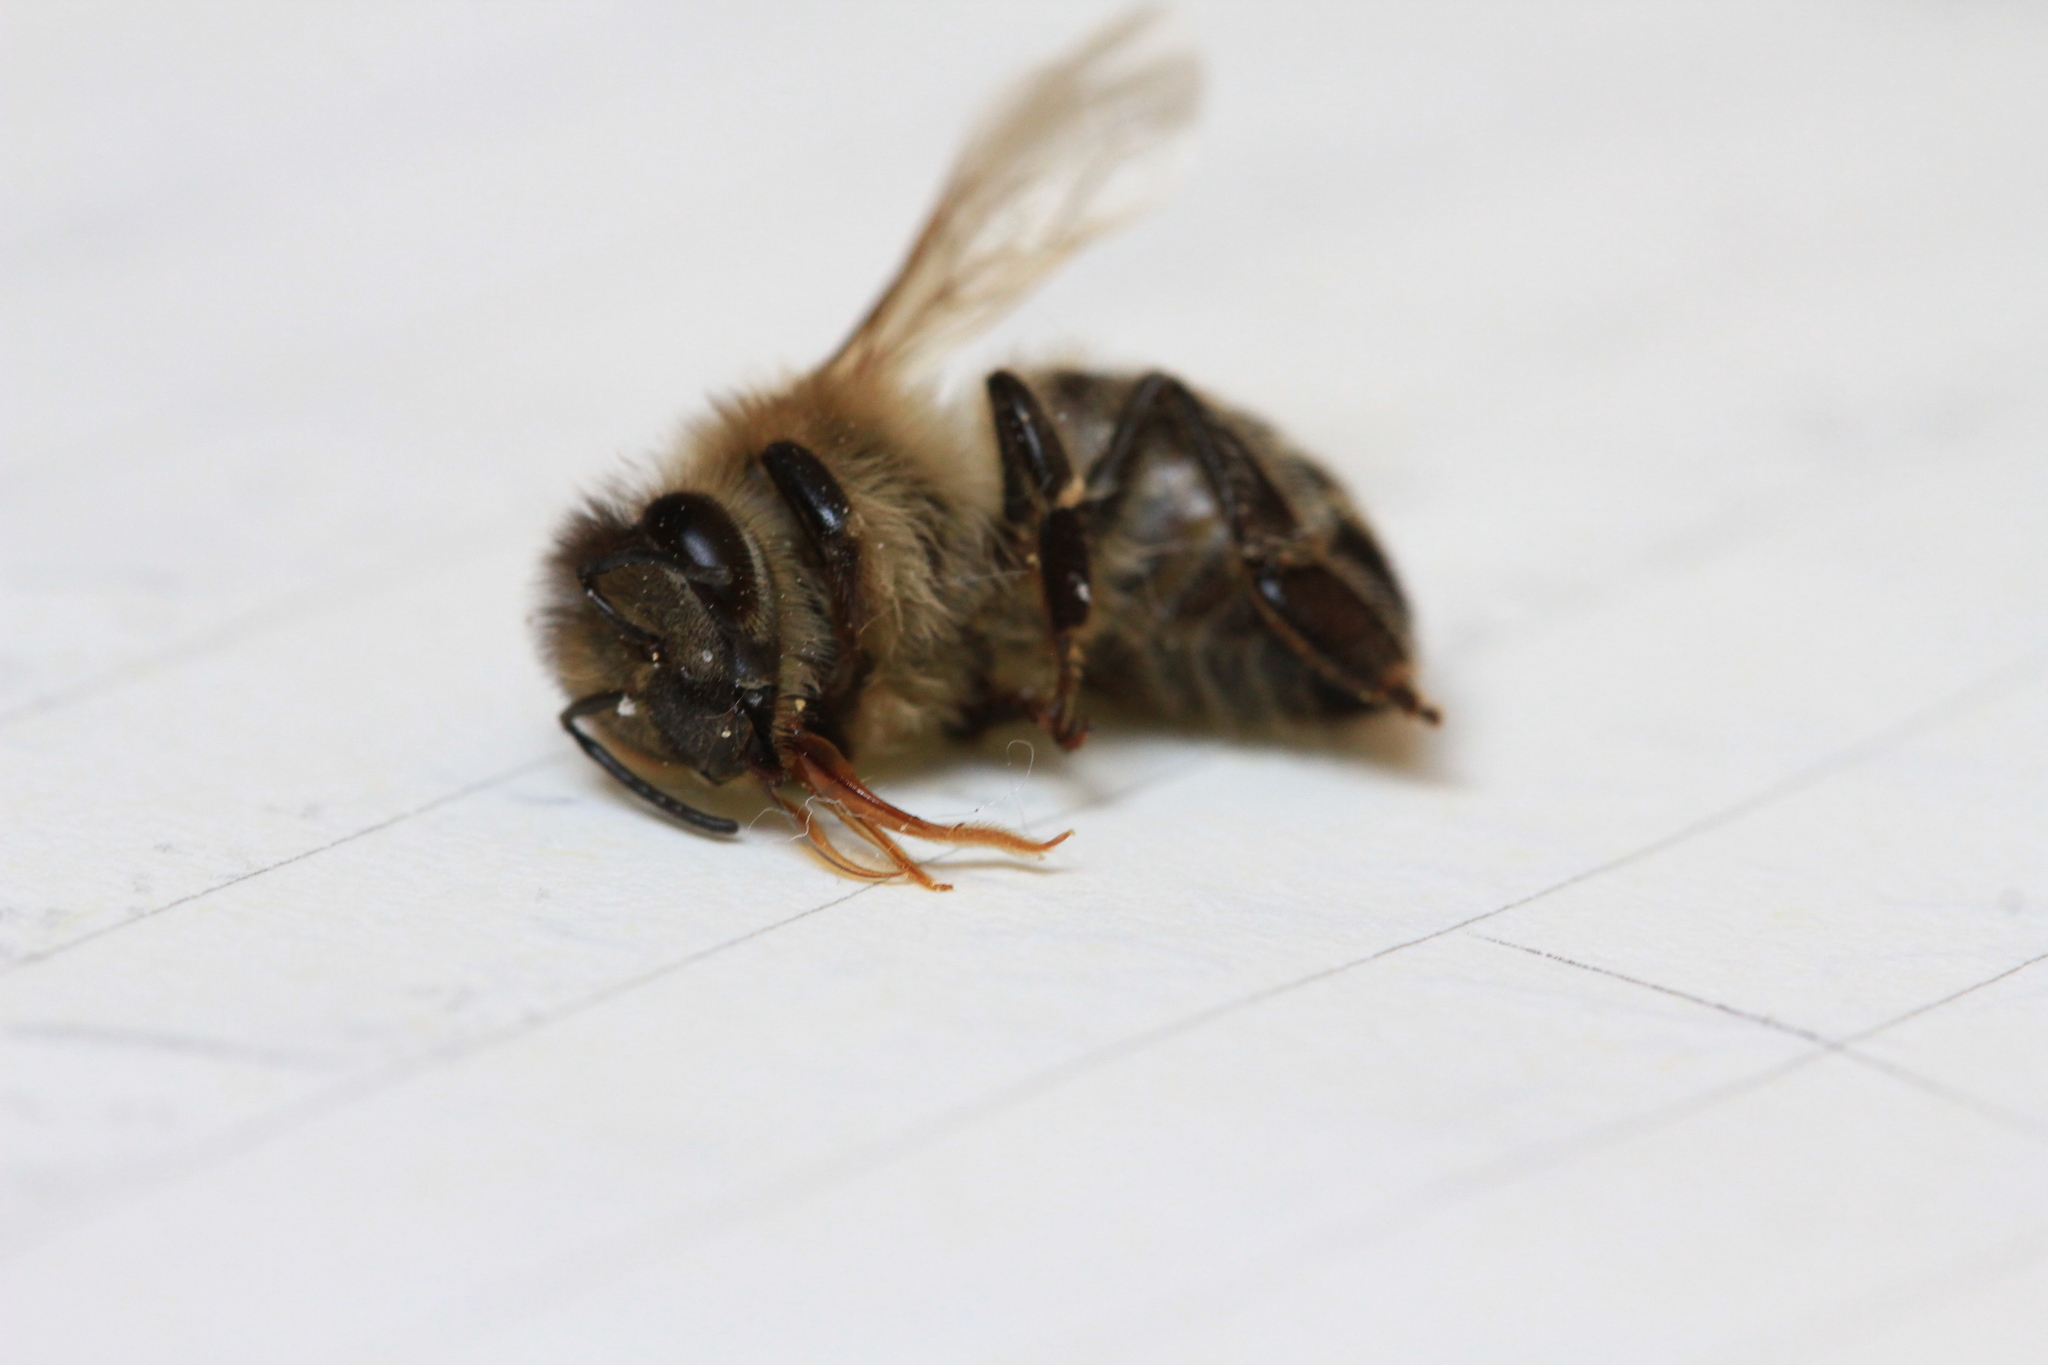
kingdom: Animalia
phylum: Arthropoda
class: Insecta
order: Hymenoptera
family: Apidae
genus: Apis
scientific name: Apis mellifera
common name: Honey bee
